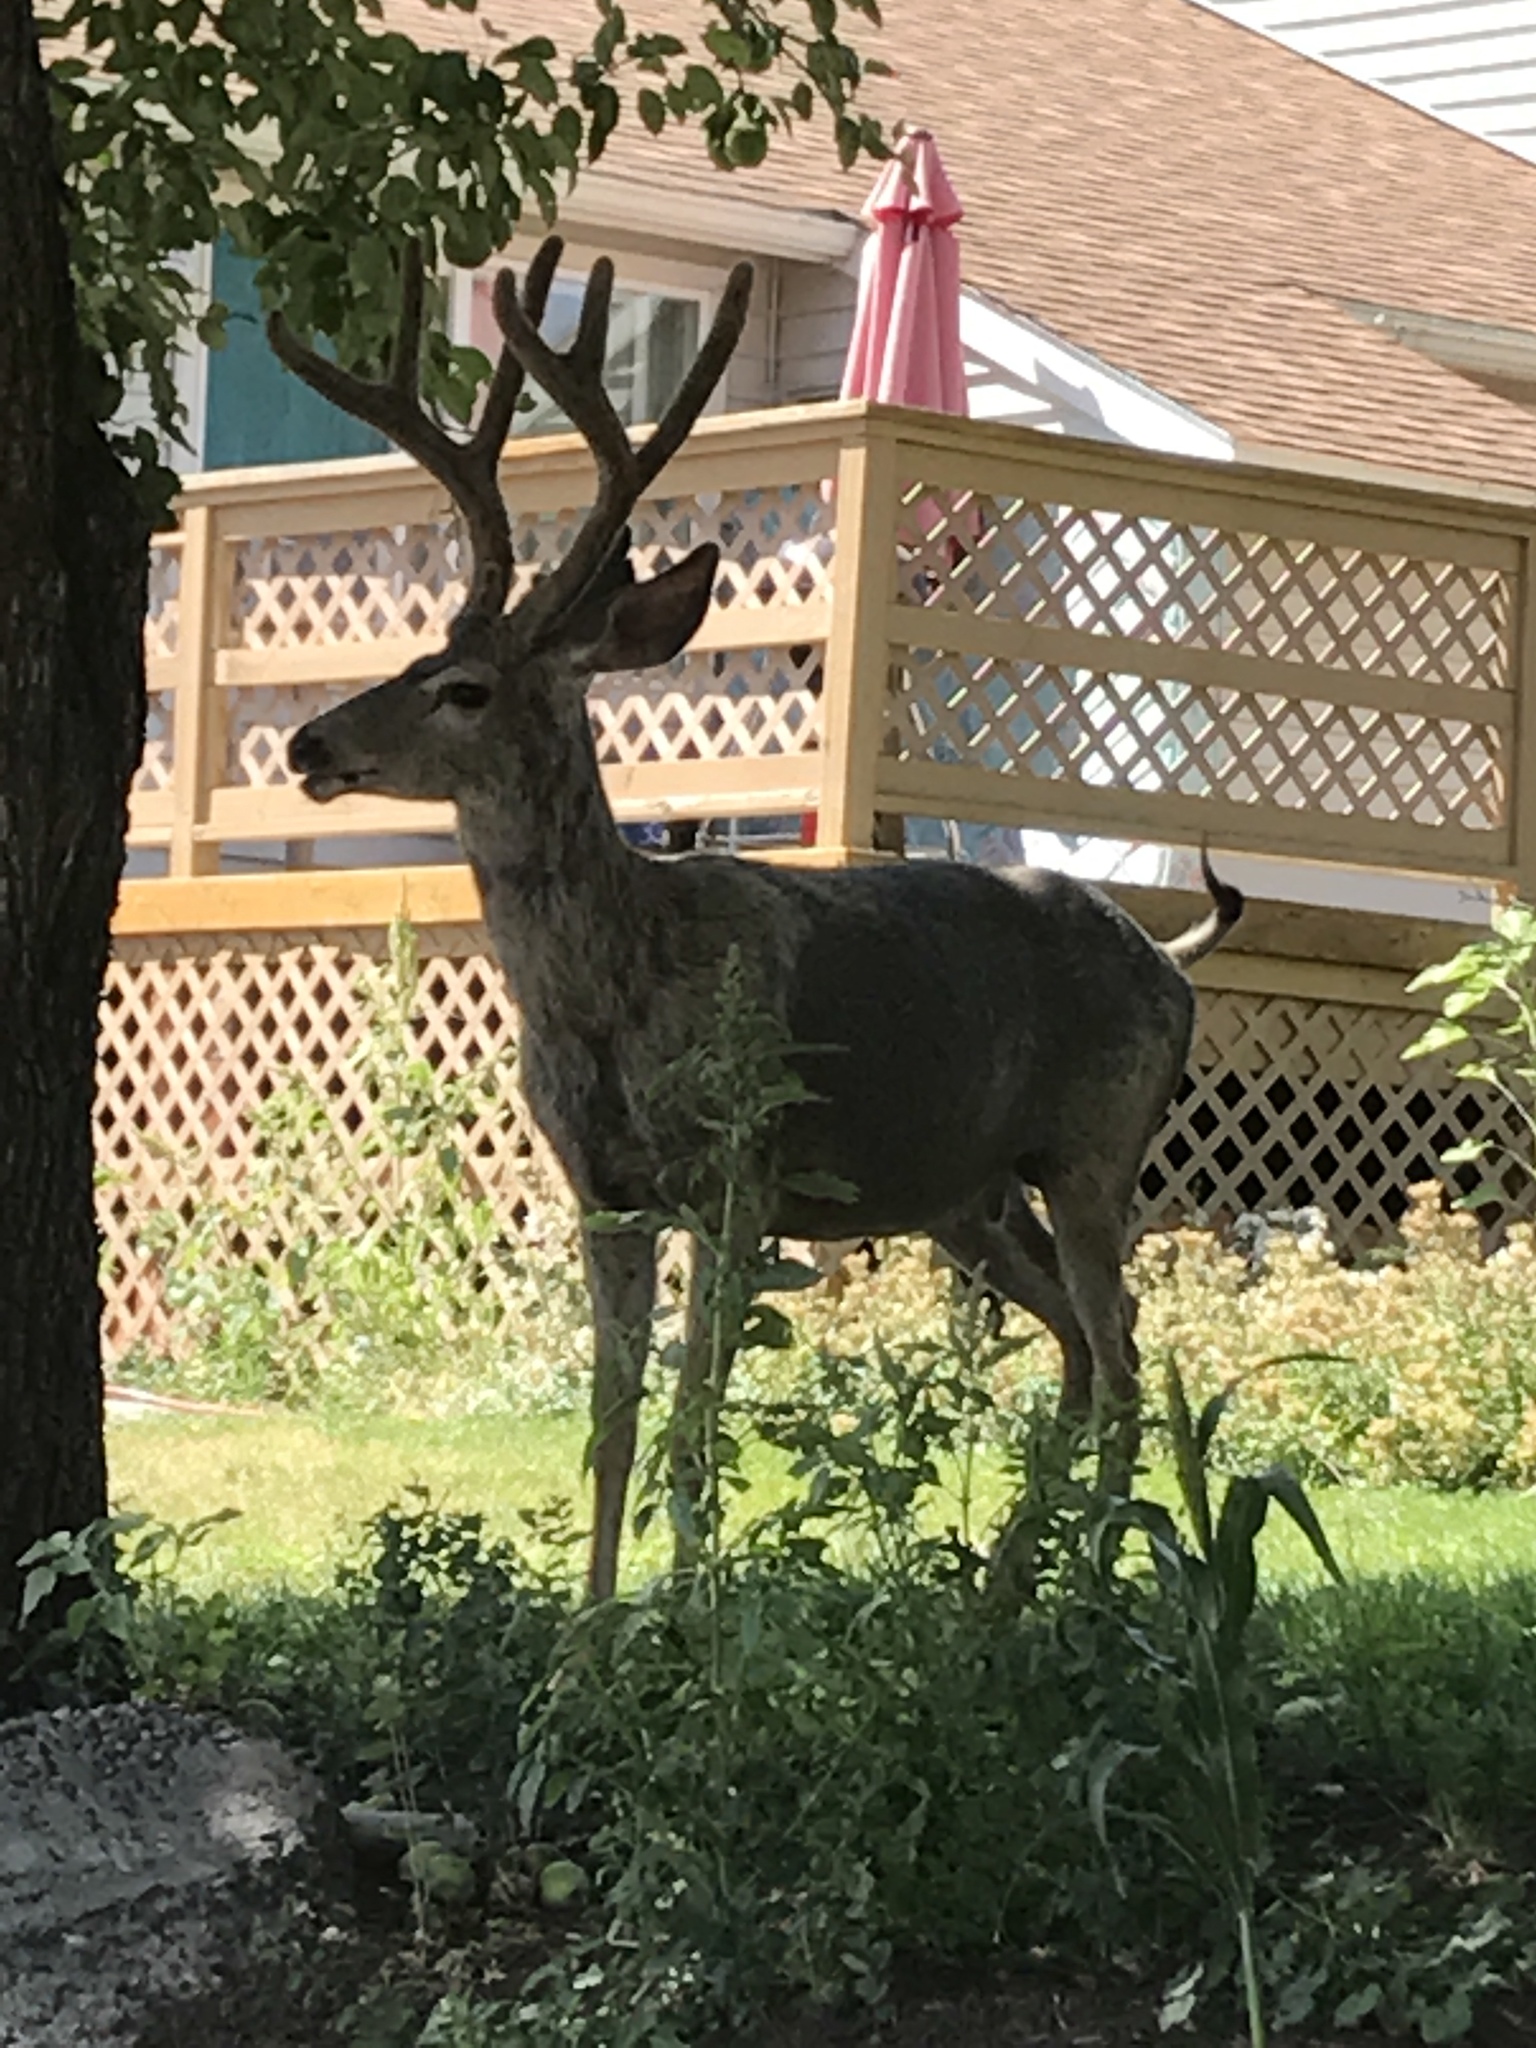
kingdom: Animalia
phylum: Chordata
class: Mammalia
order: Artiodactyla
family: Cervidae
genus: Odocoileus
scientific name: Odocoileus hemionus
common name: Mule deer
